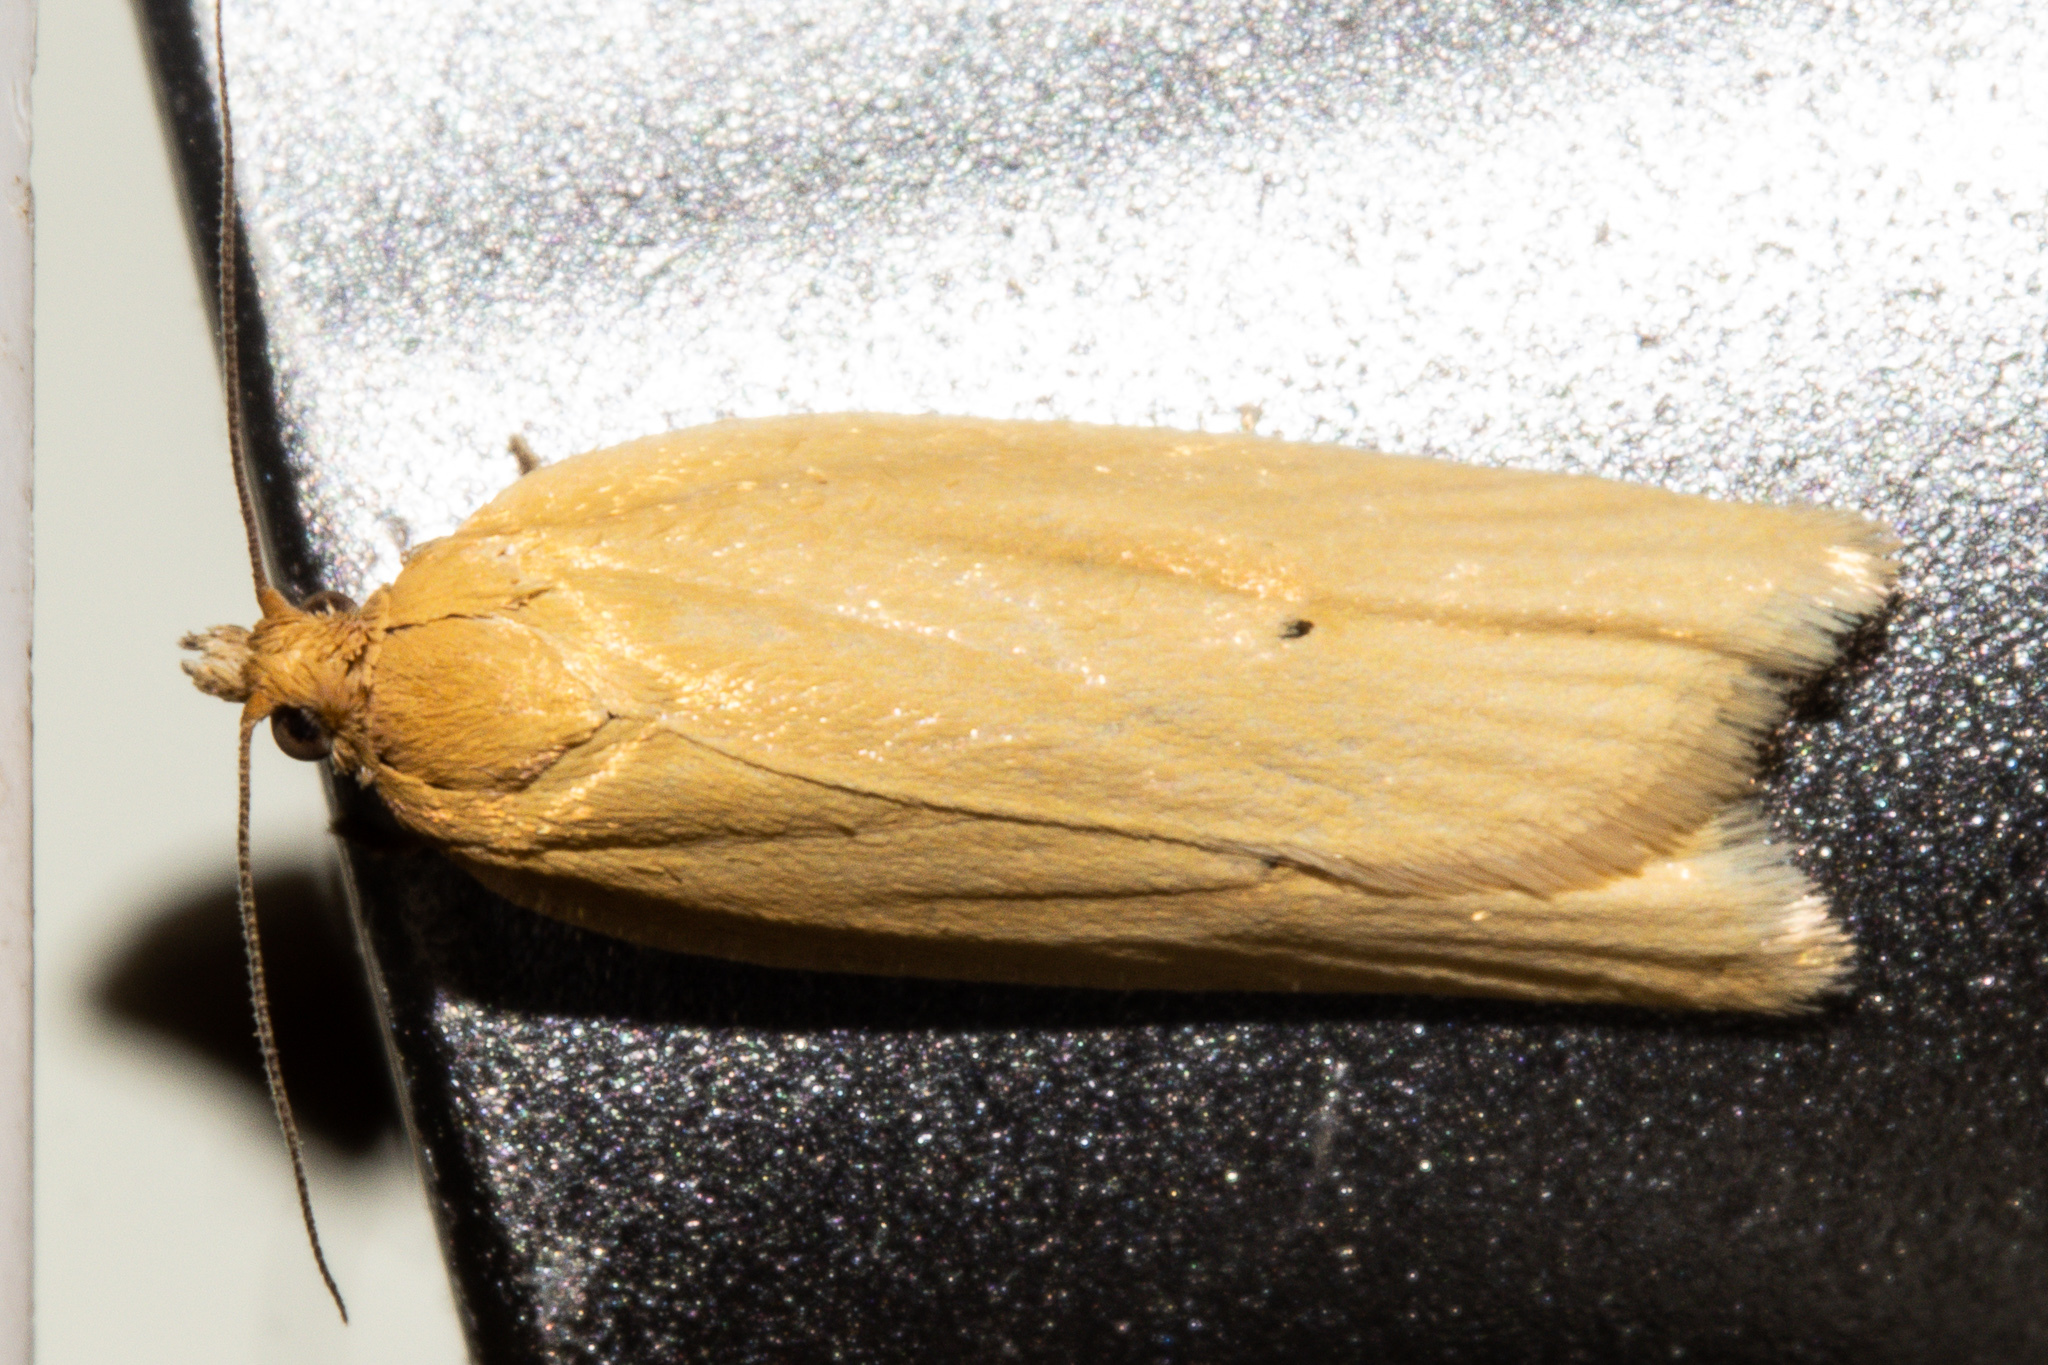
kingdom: Animalia
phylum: Arthropoda
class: Insecta
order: Lepidoptera
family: Tortricidae
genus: Clepsis
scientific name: Clepsis
